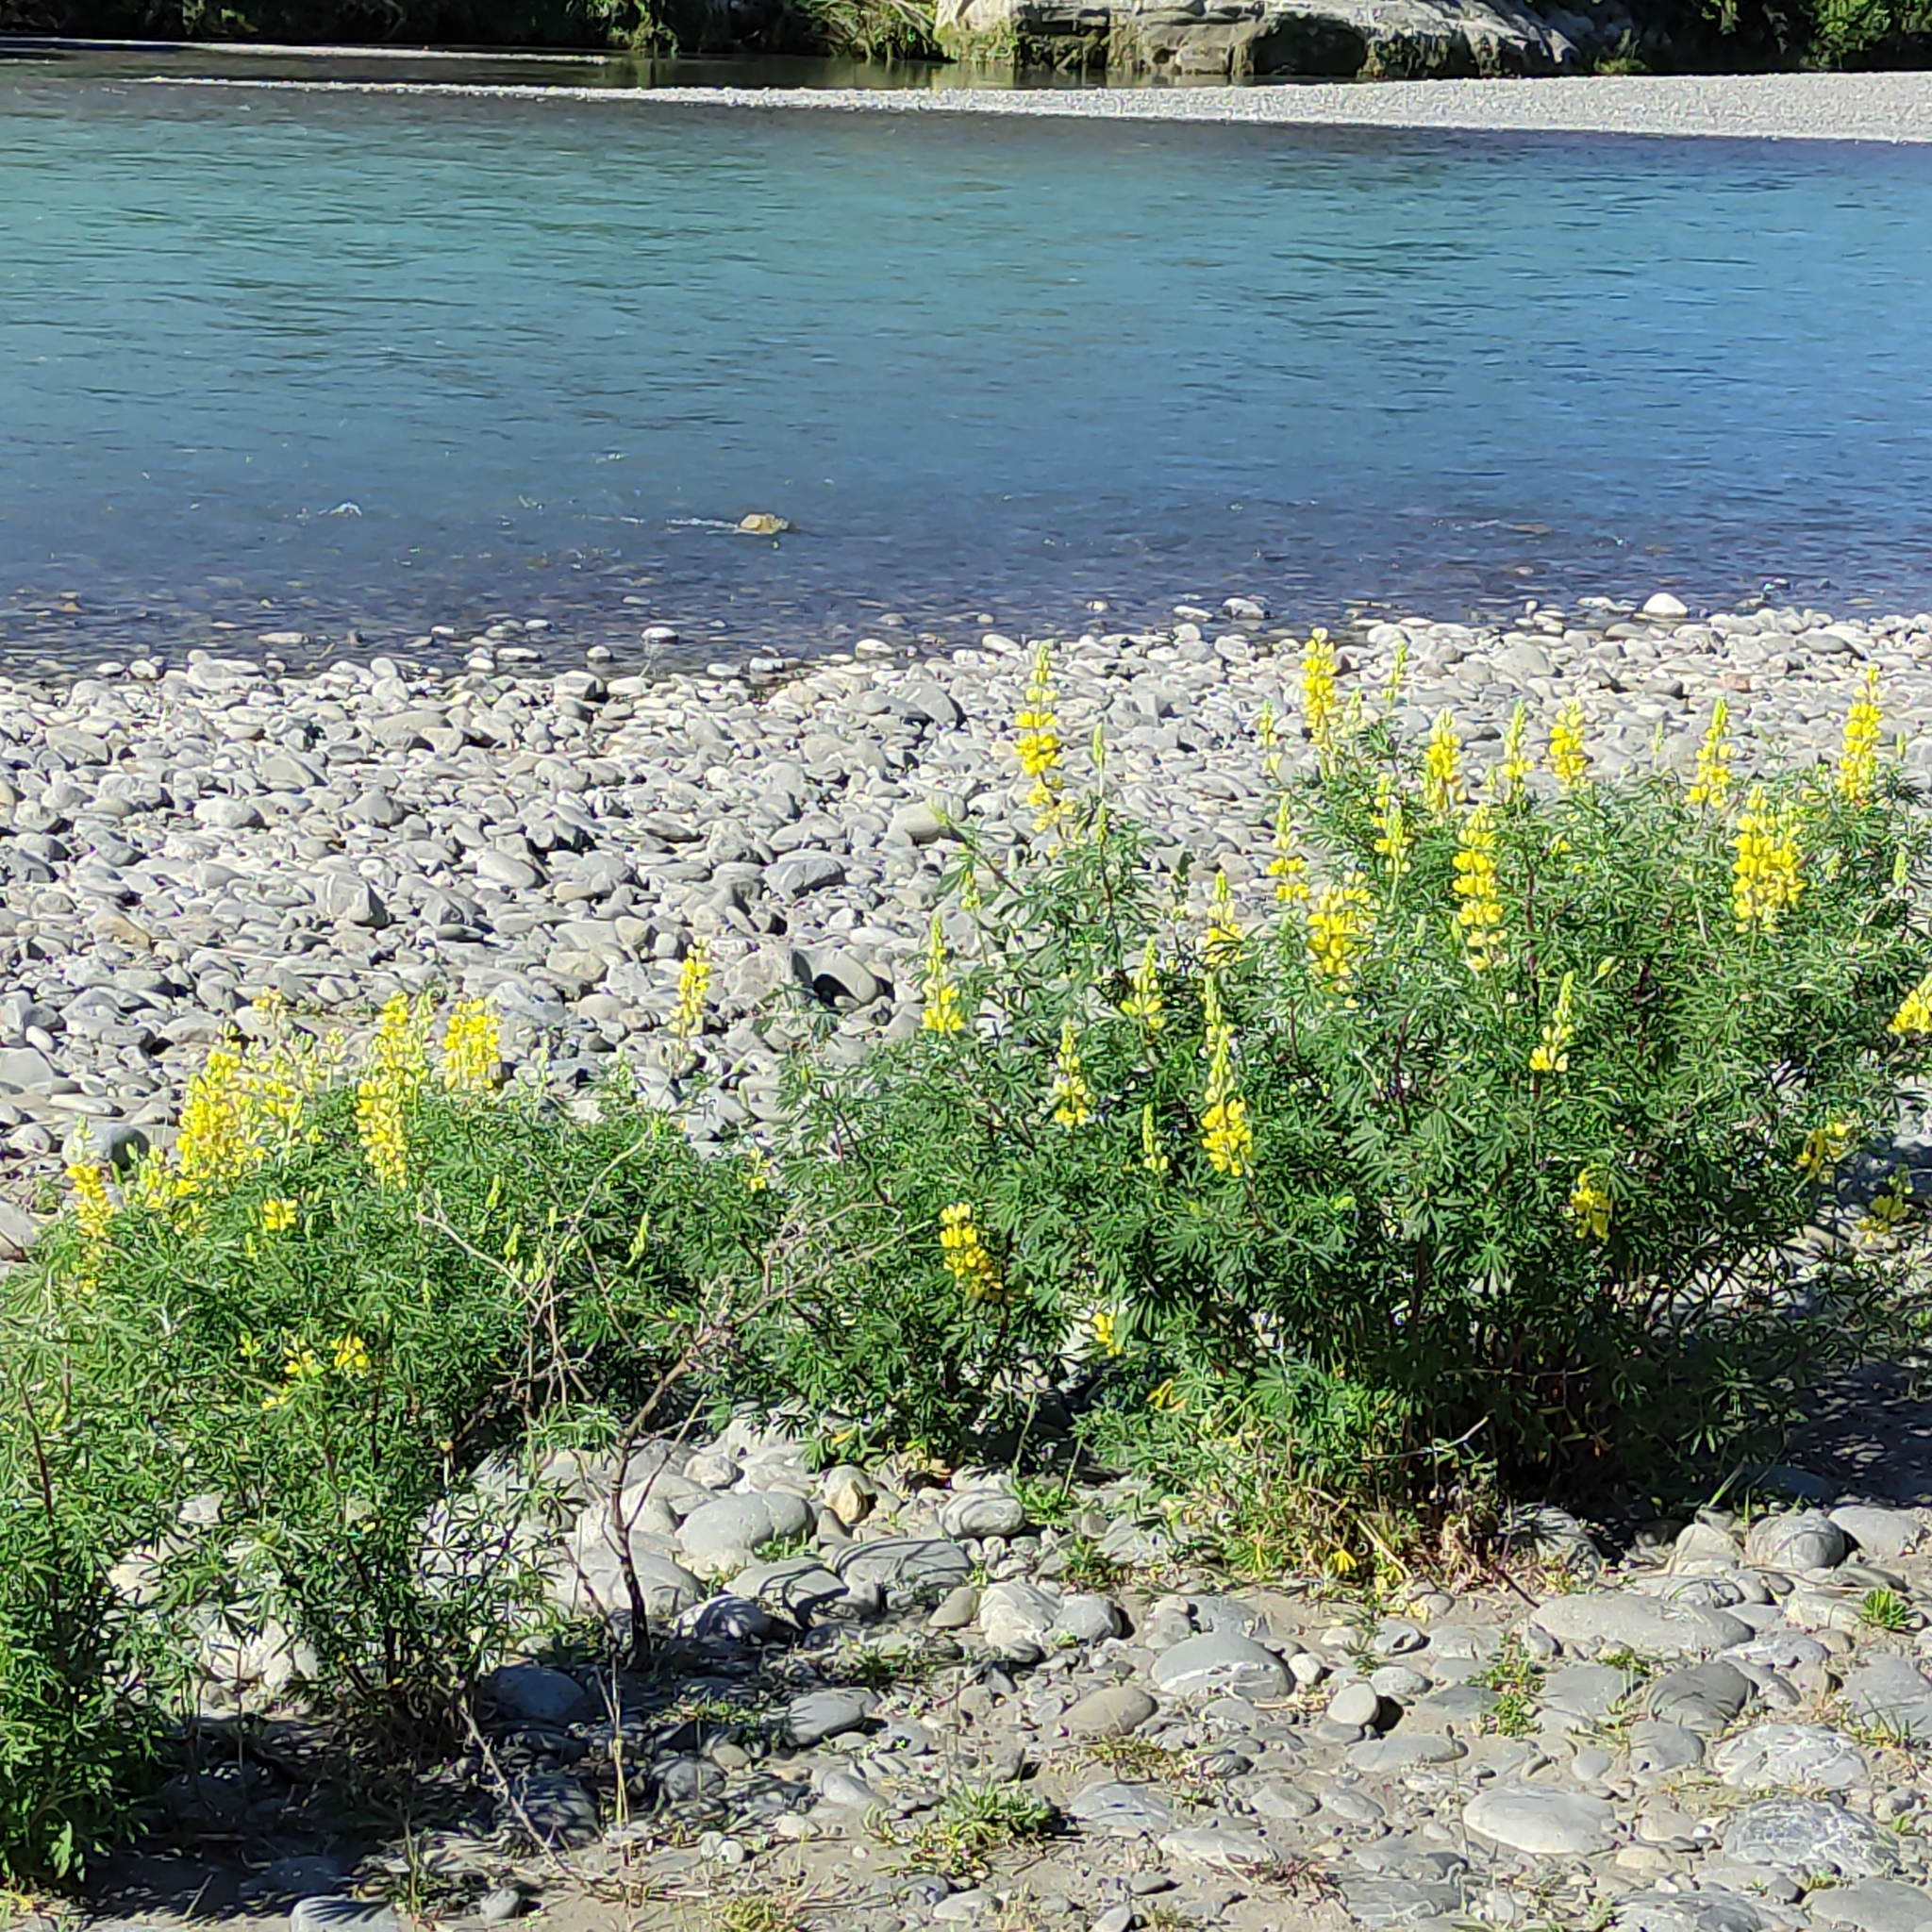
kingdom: Plantae
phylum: Tracheophyta
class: Magnoliopsida
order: Fabales
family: Fabaceae
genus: Lupinus
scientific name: Lupinus arboreus
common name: Yellow bush lupine
